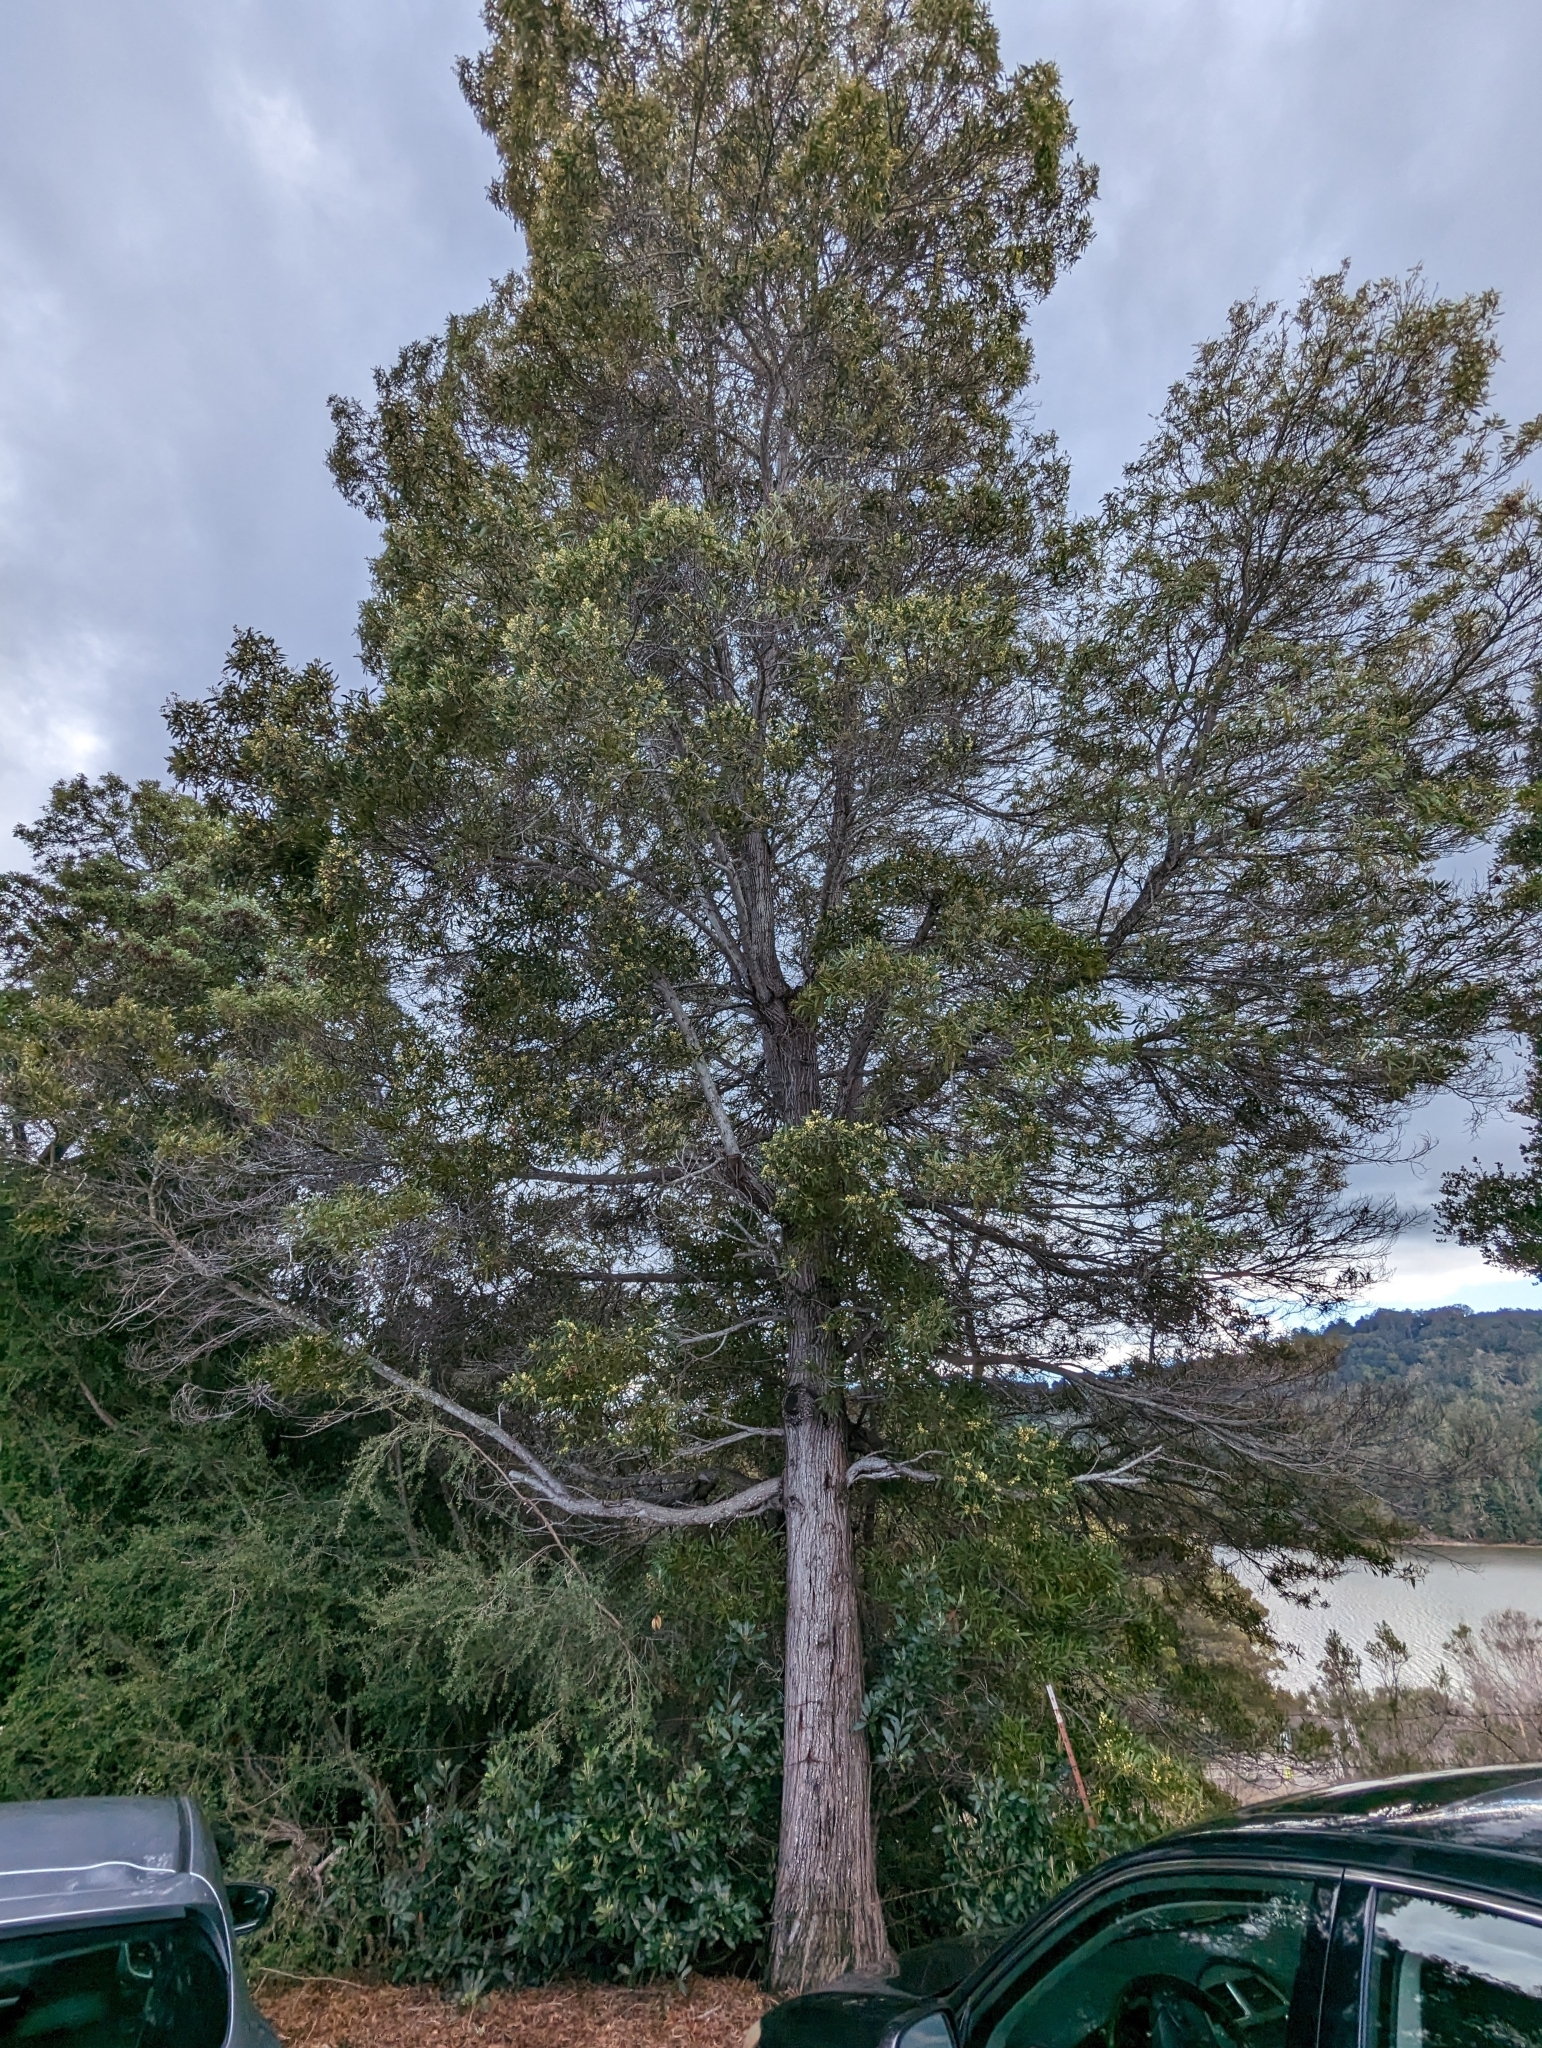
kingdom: Plantae
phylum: Tracheophyta
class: Magnoliopsida
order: Fabales
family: Fabaceae
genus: Acacia
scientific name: Acacia melanoxylon
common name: Blackwood
